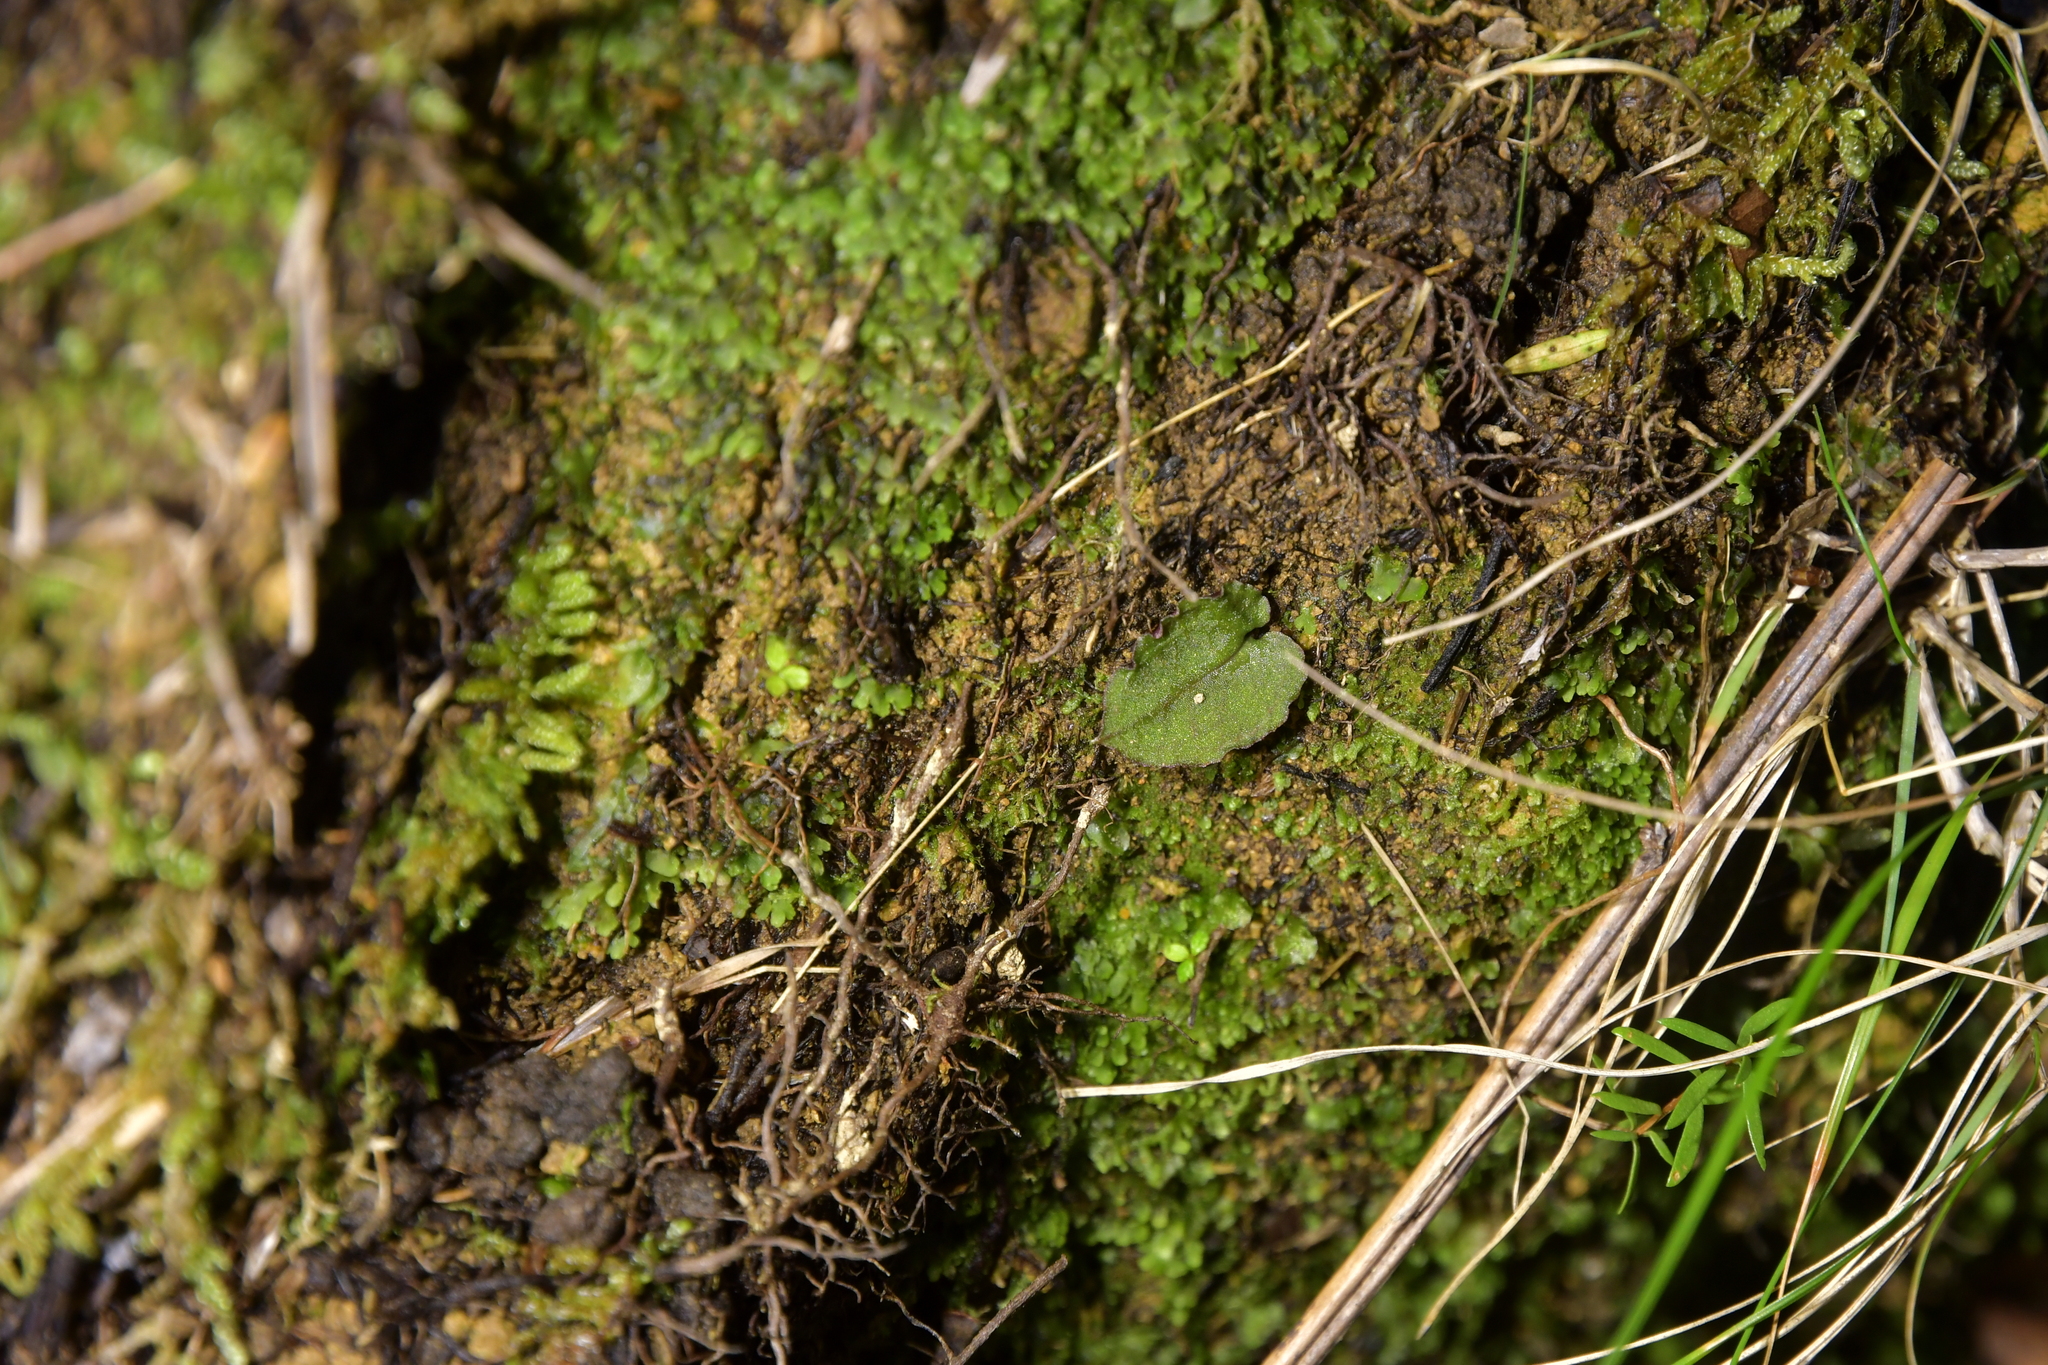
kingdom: Plantae
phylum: Tracheophyta
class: Liliopsida
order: Asparagales
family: Orchidaceae
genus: Corybas
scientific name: Corybas oblongus
